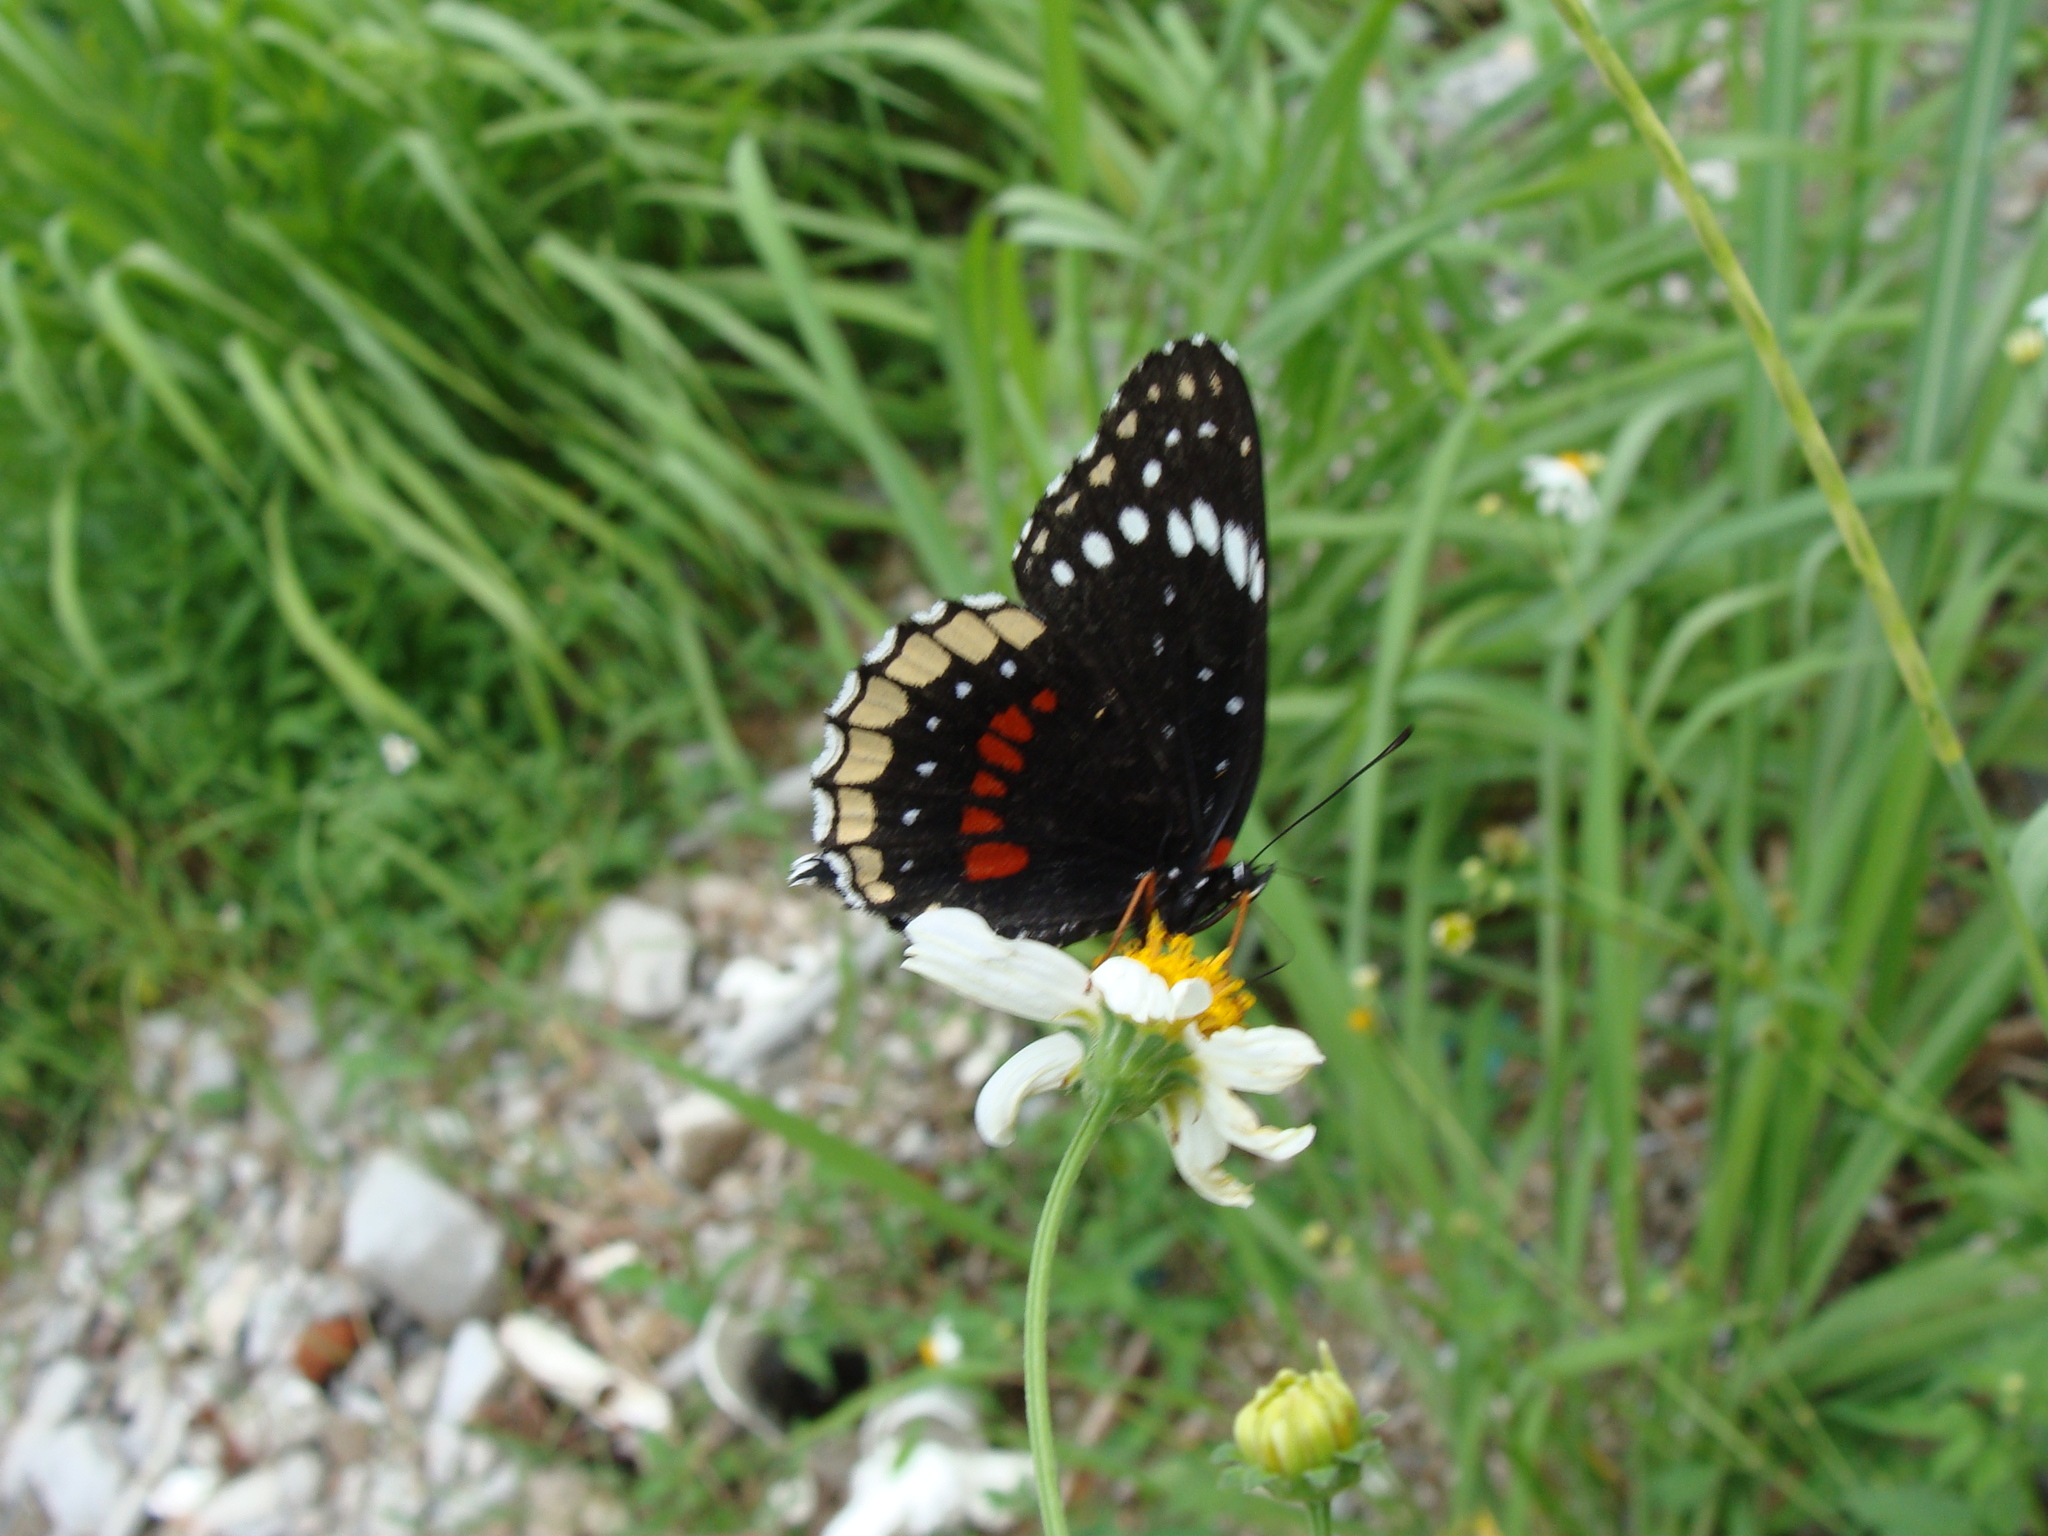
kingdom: Animalia
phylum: Arthropoda
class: Insecta
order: Lepidoptera
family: Nymphalidae
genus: Chlosyne
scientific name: Chlosyne hippodrome
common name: Simple patch
